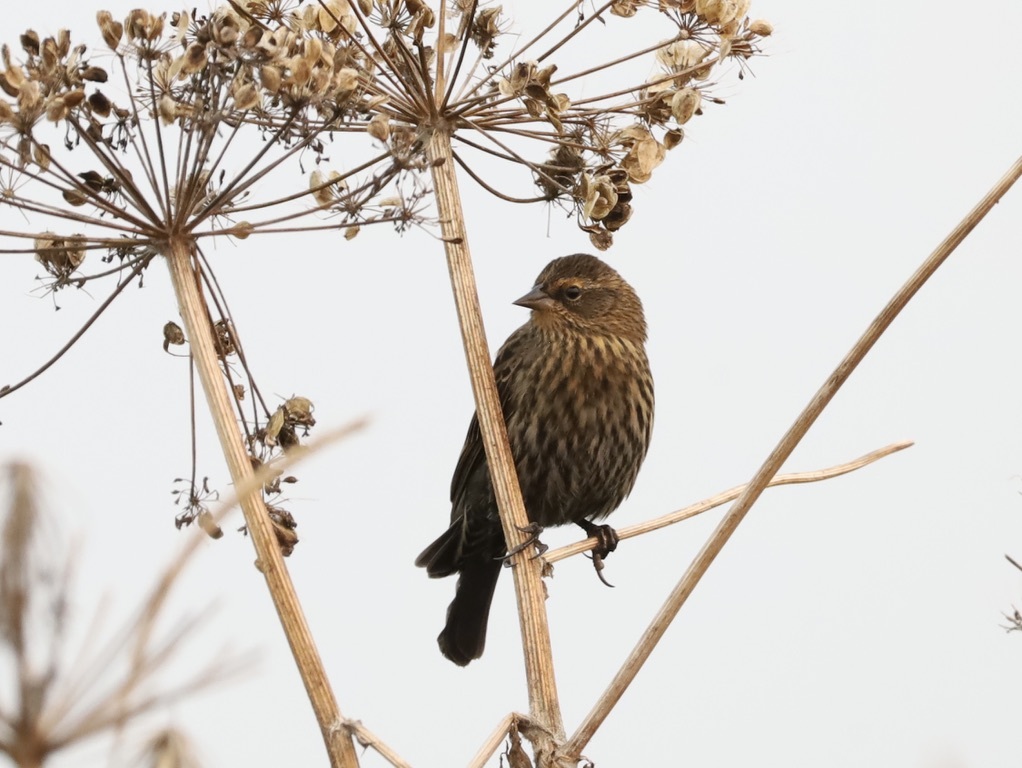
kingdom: Animalia
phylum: Chordata
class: Aves
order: Passeriformes
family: Icteridae
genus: Agelaius
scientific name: Agelaius phoeniceus
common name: Red-winged blackbird
